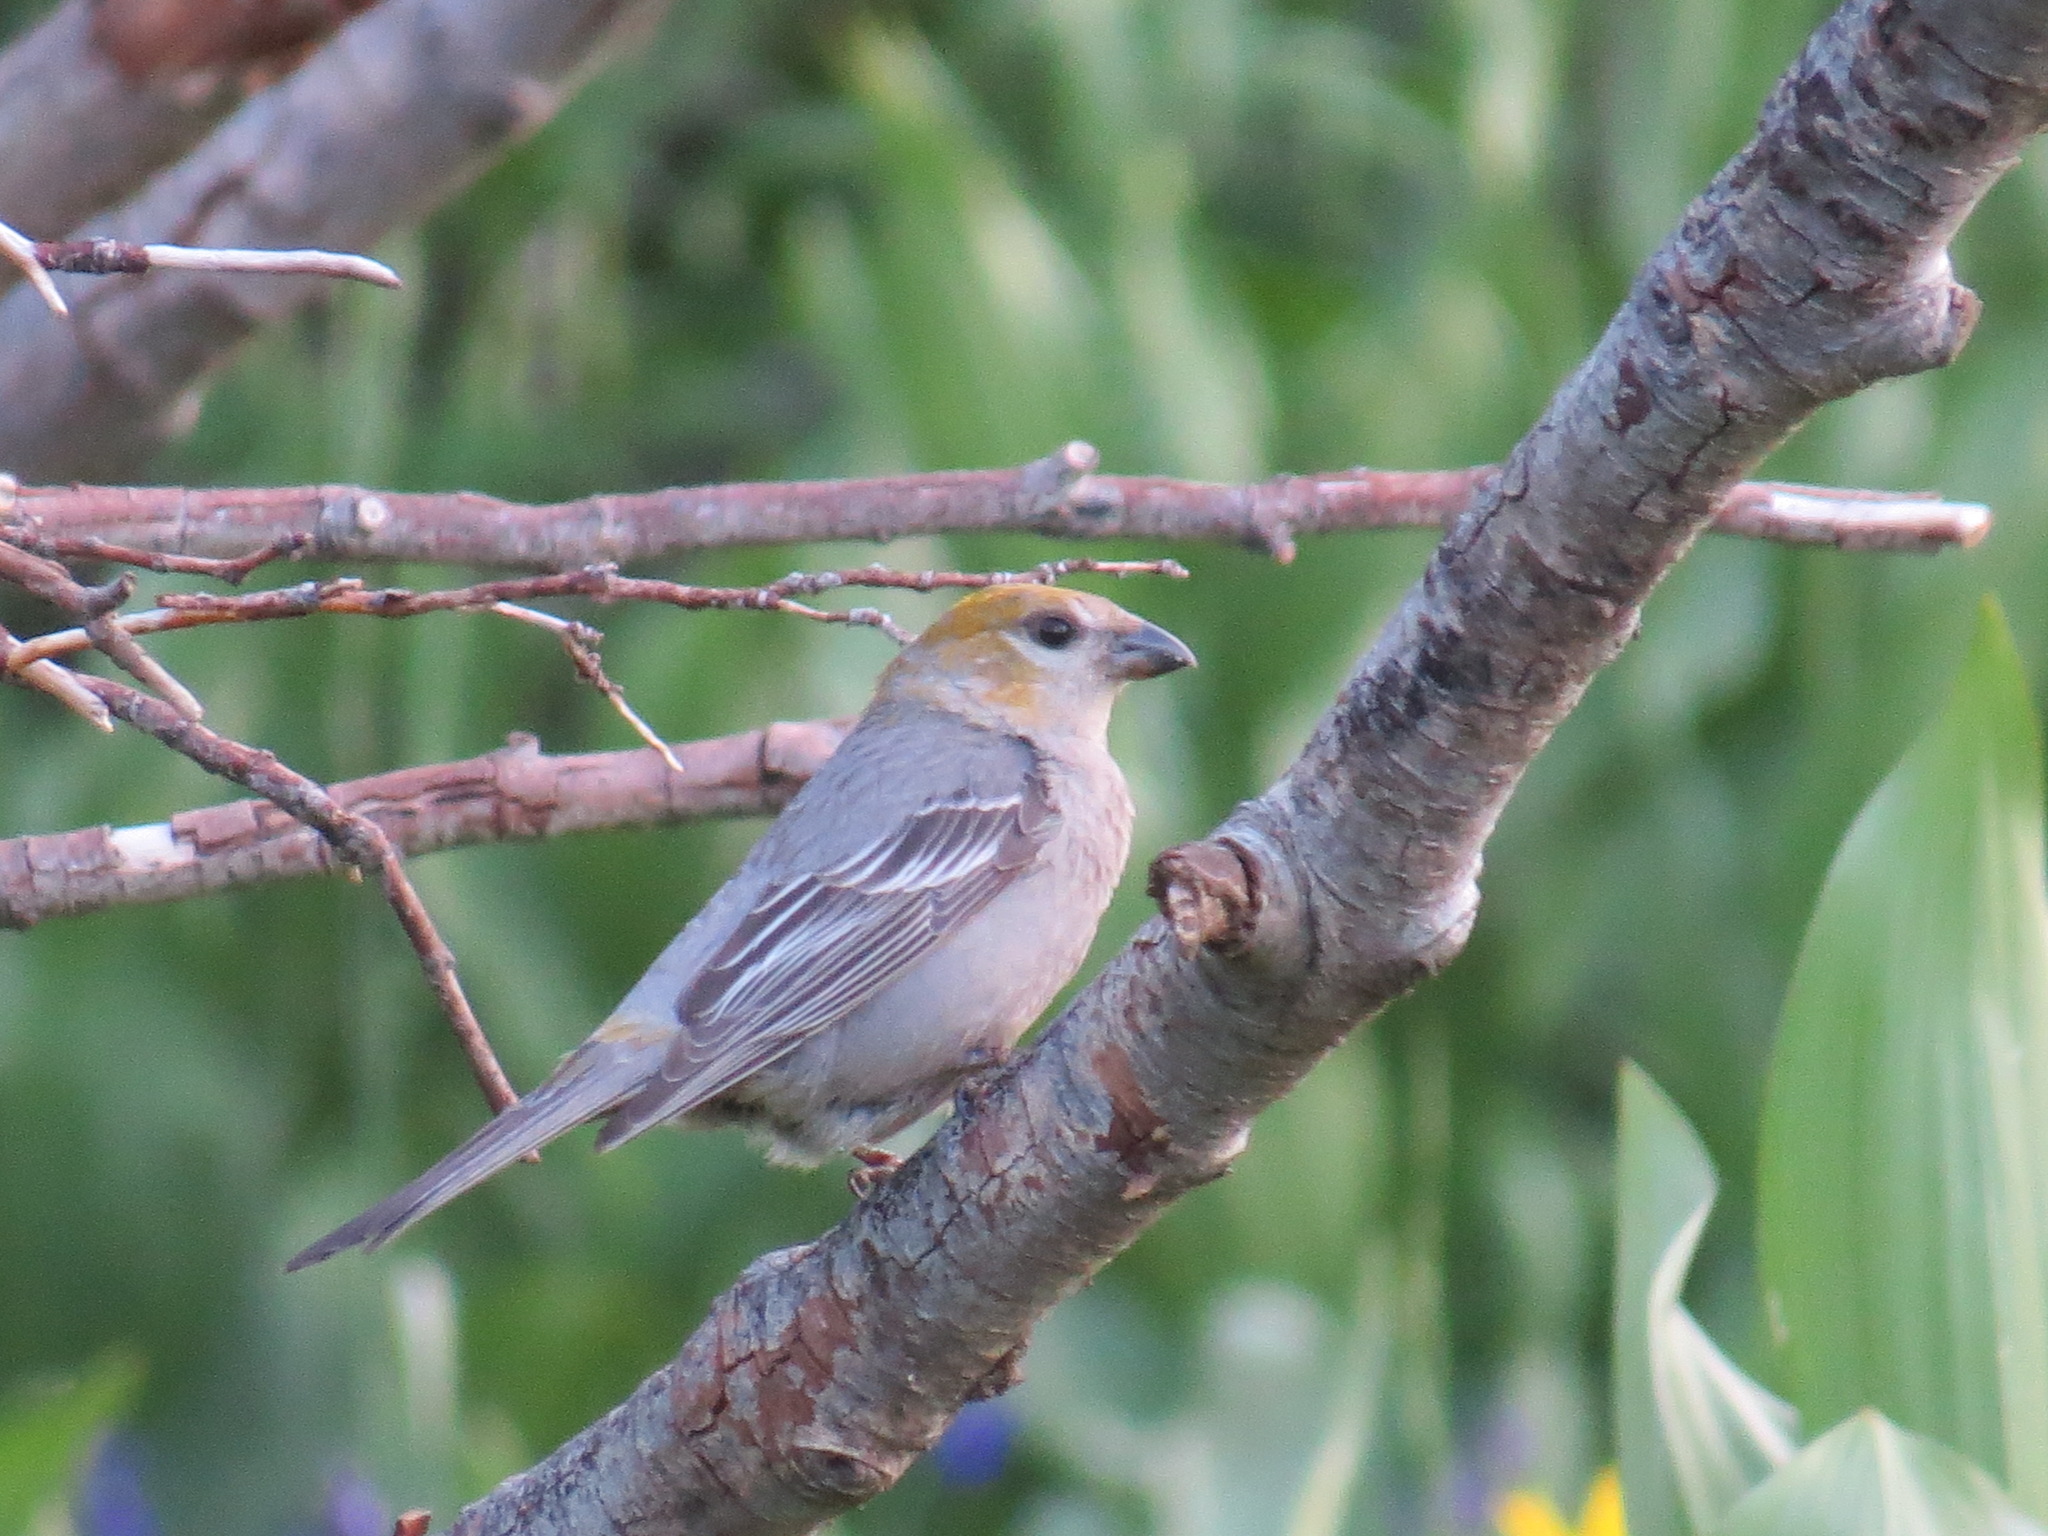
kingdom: Animalia
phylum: Chordata
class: Aves
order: Passeriformes
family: Fringillidae
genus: Pinicola
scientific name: Pinicola enucleator
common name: Pine grosbeak
